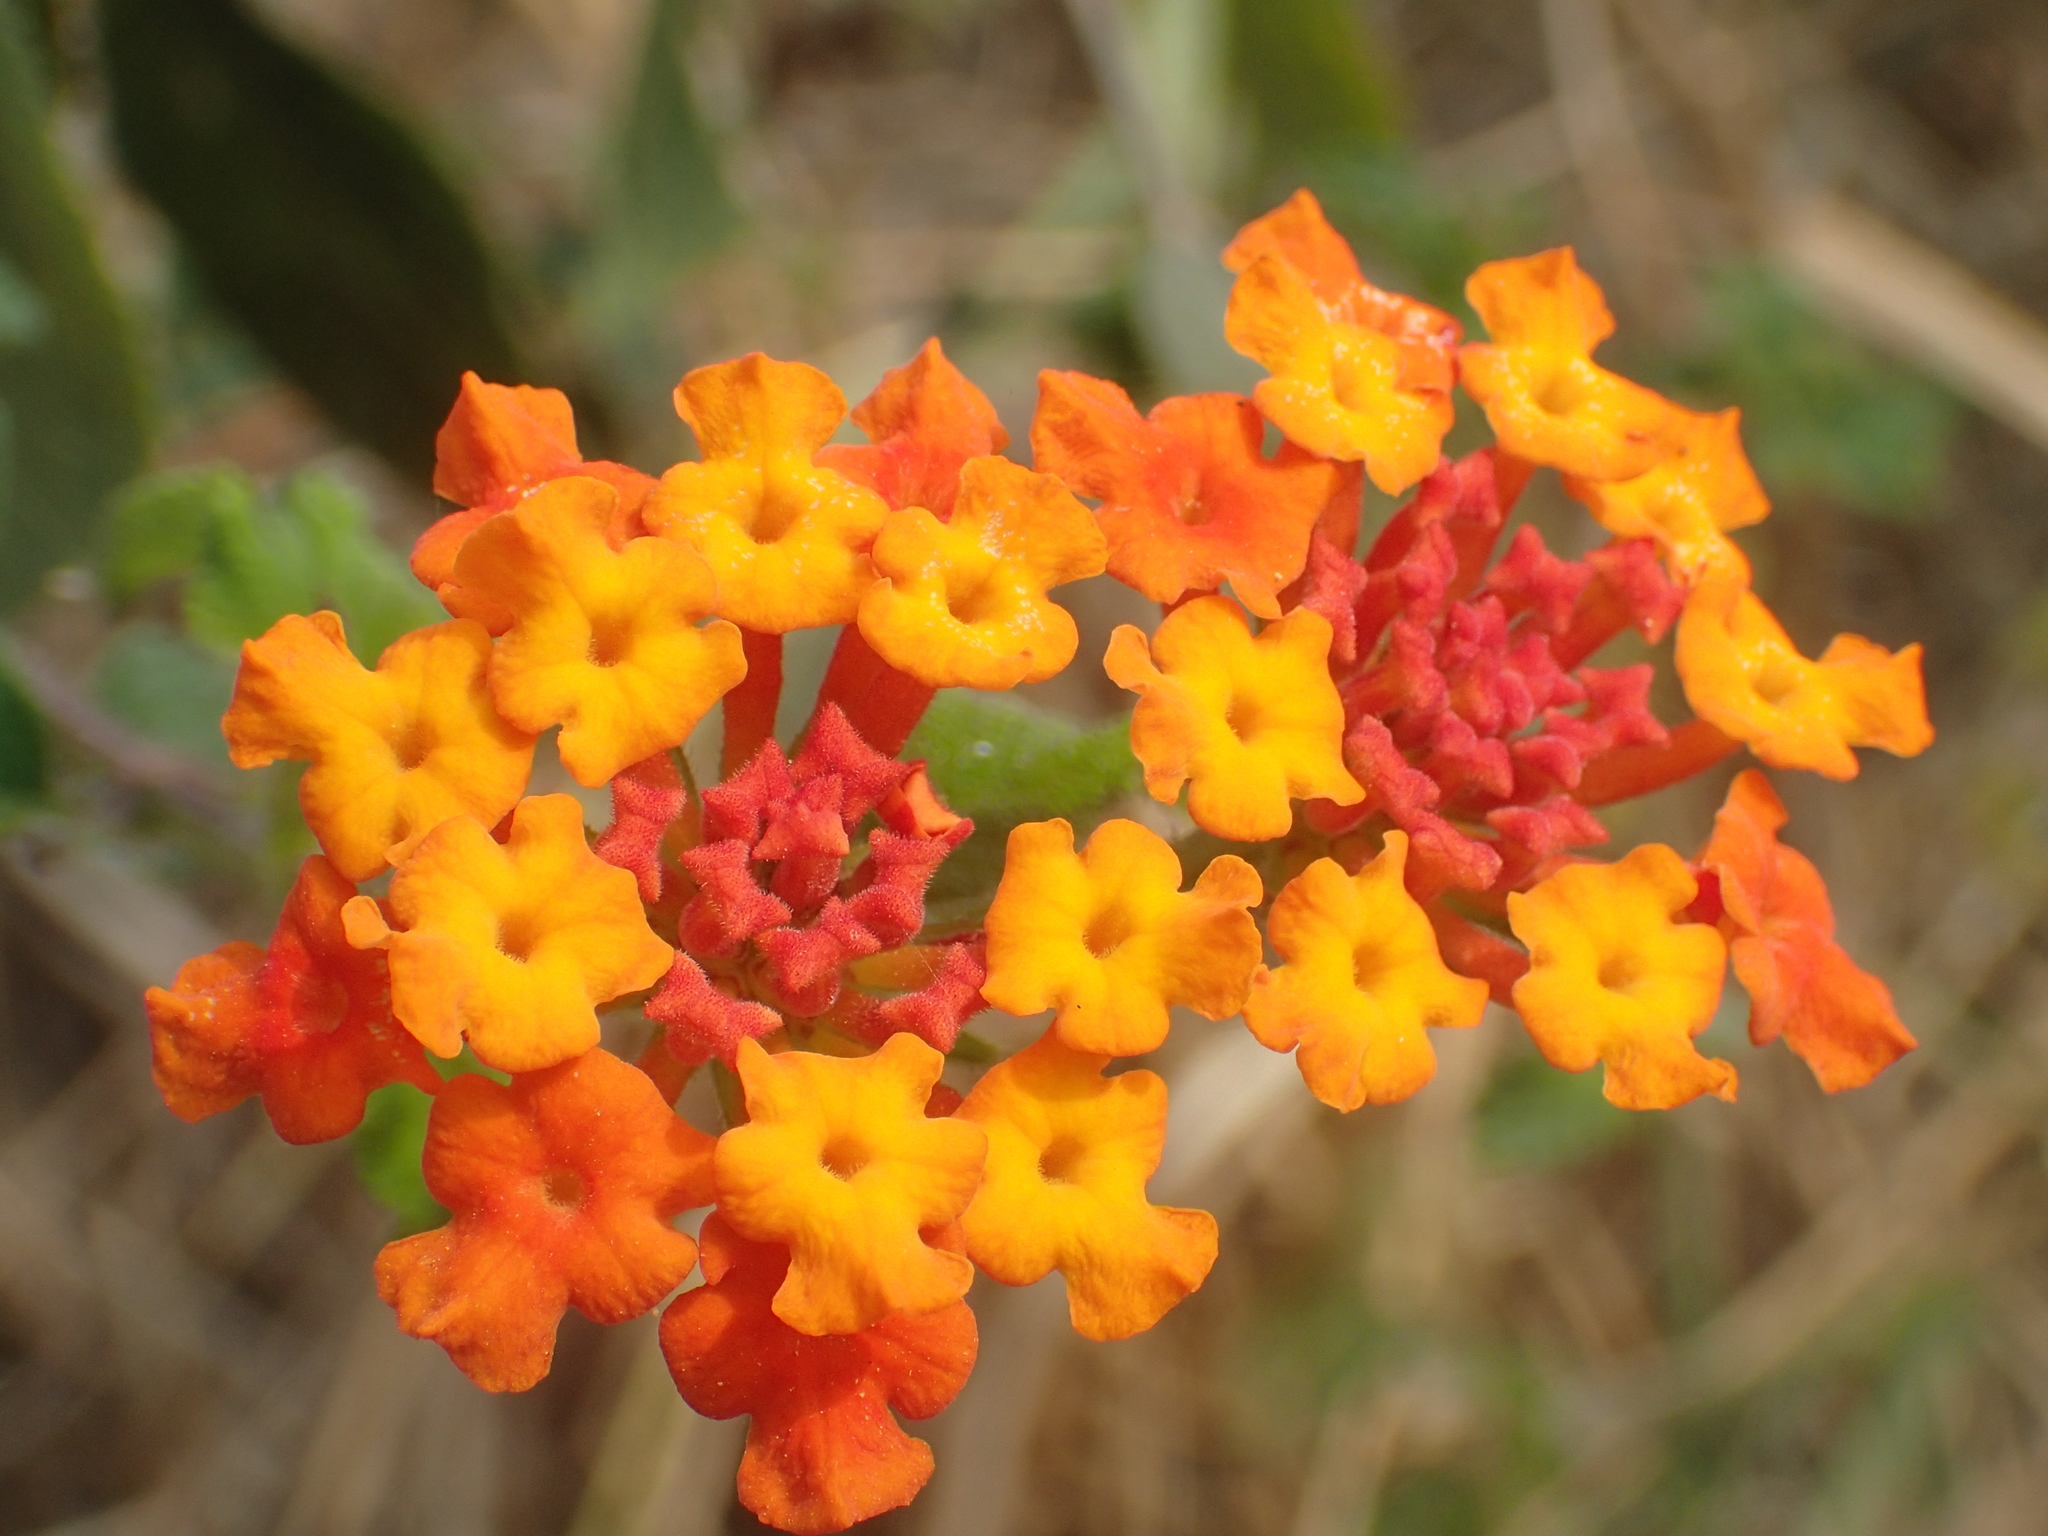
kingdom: Plantae
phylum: Tracheophyta
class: Magnoliopsida
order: Lamiales
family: Verbenaceae
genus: Lantana
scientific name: Lantana camara
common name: Lantana
